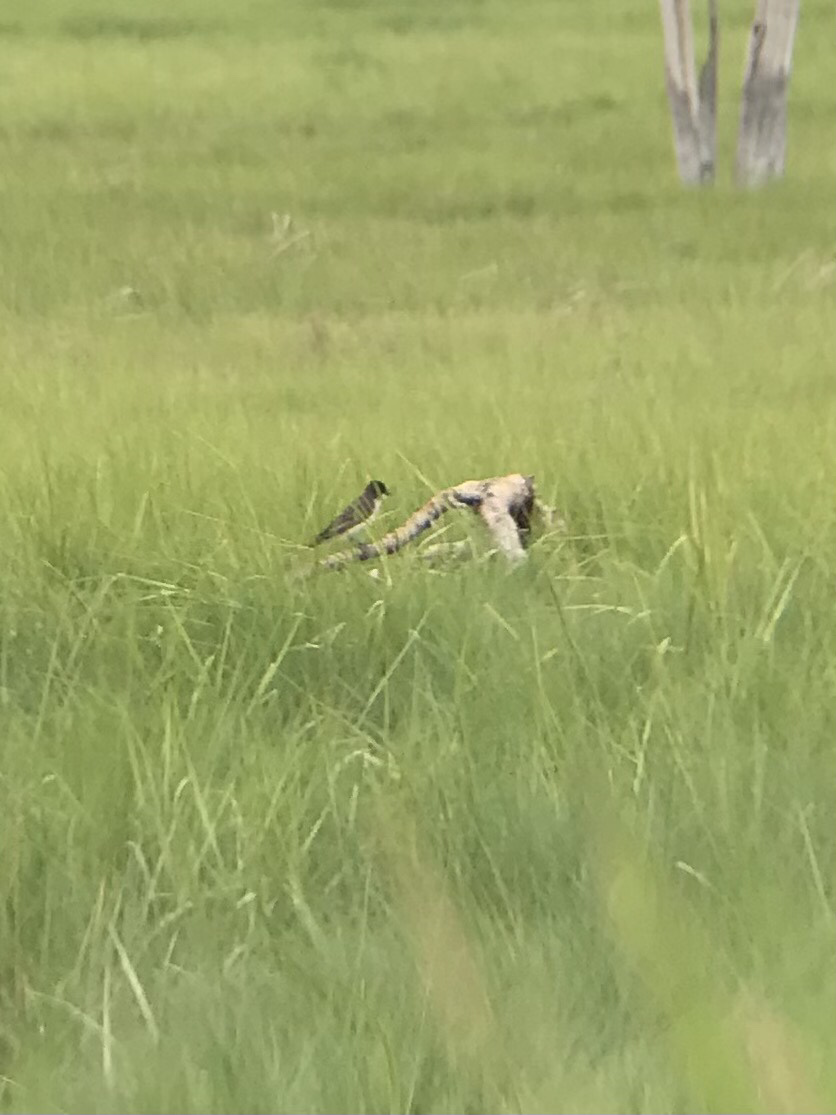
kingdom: Animalia
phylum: Chordata
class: Aves
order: Passeriformes
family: Tyrannidae
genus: Tyrannus
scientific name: Tyrannus tyrannus
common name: Eastern kingbird
